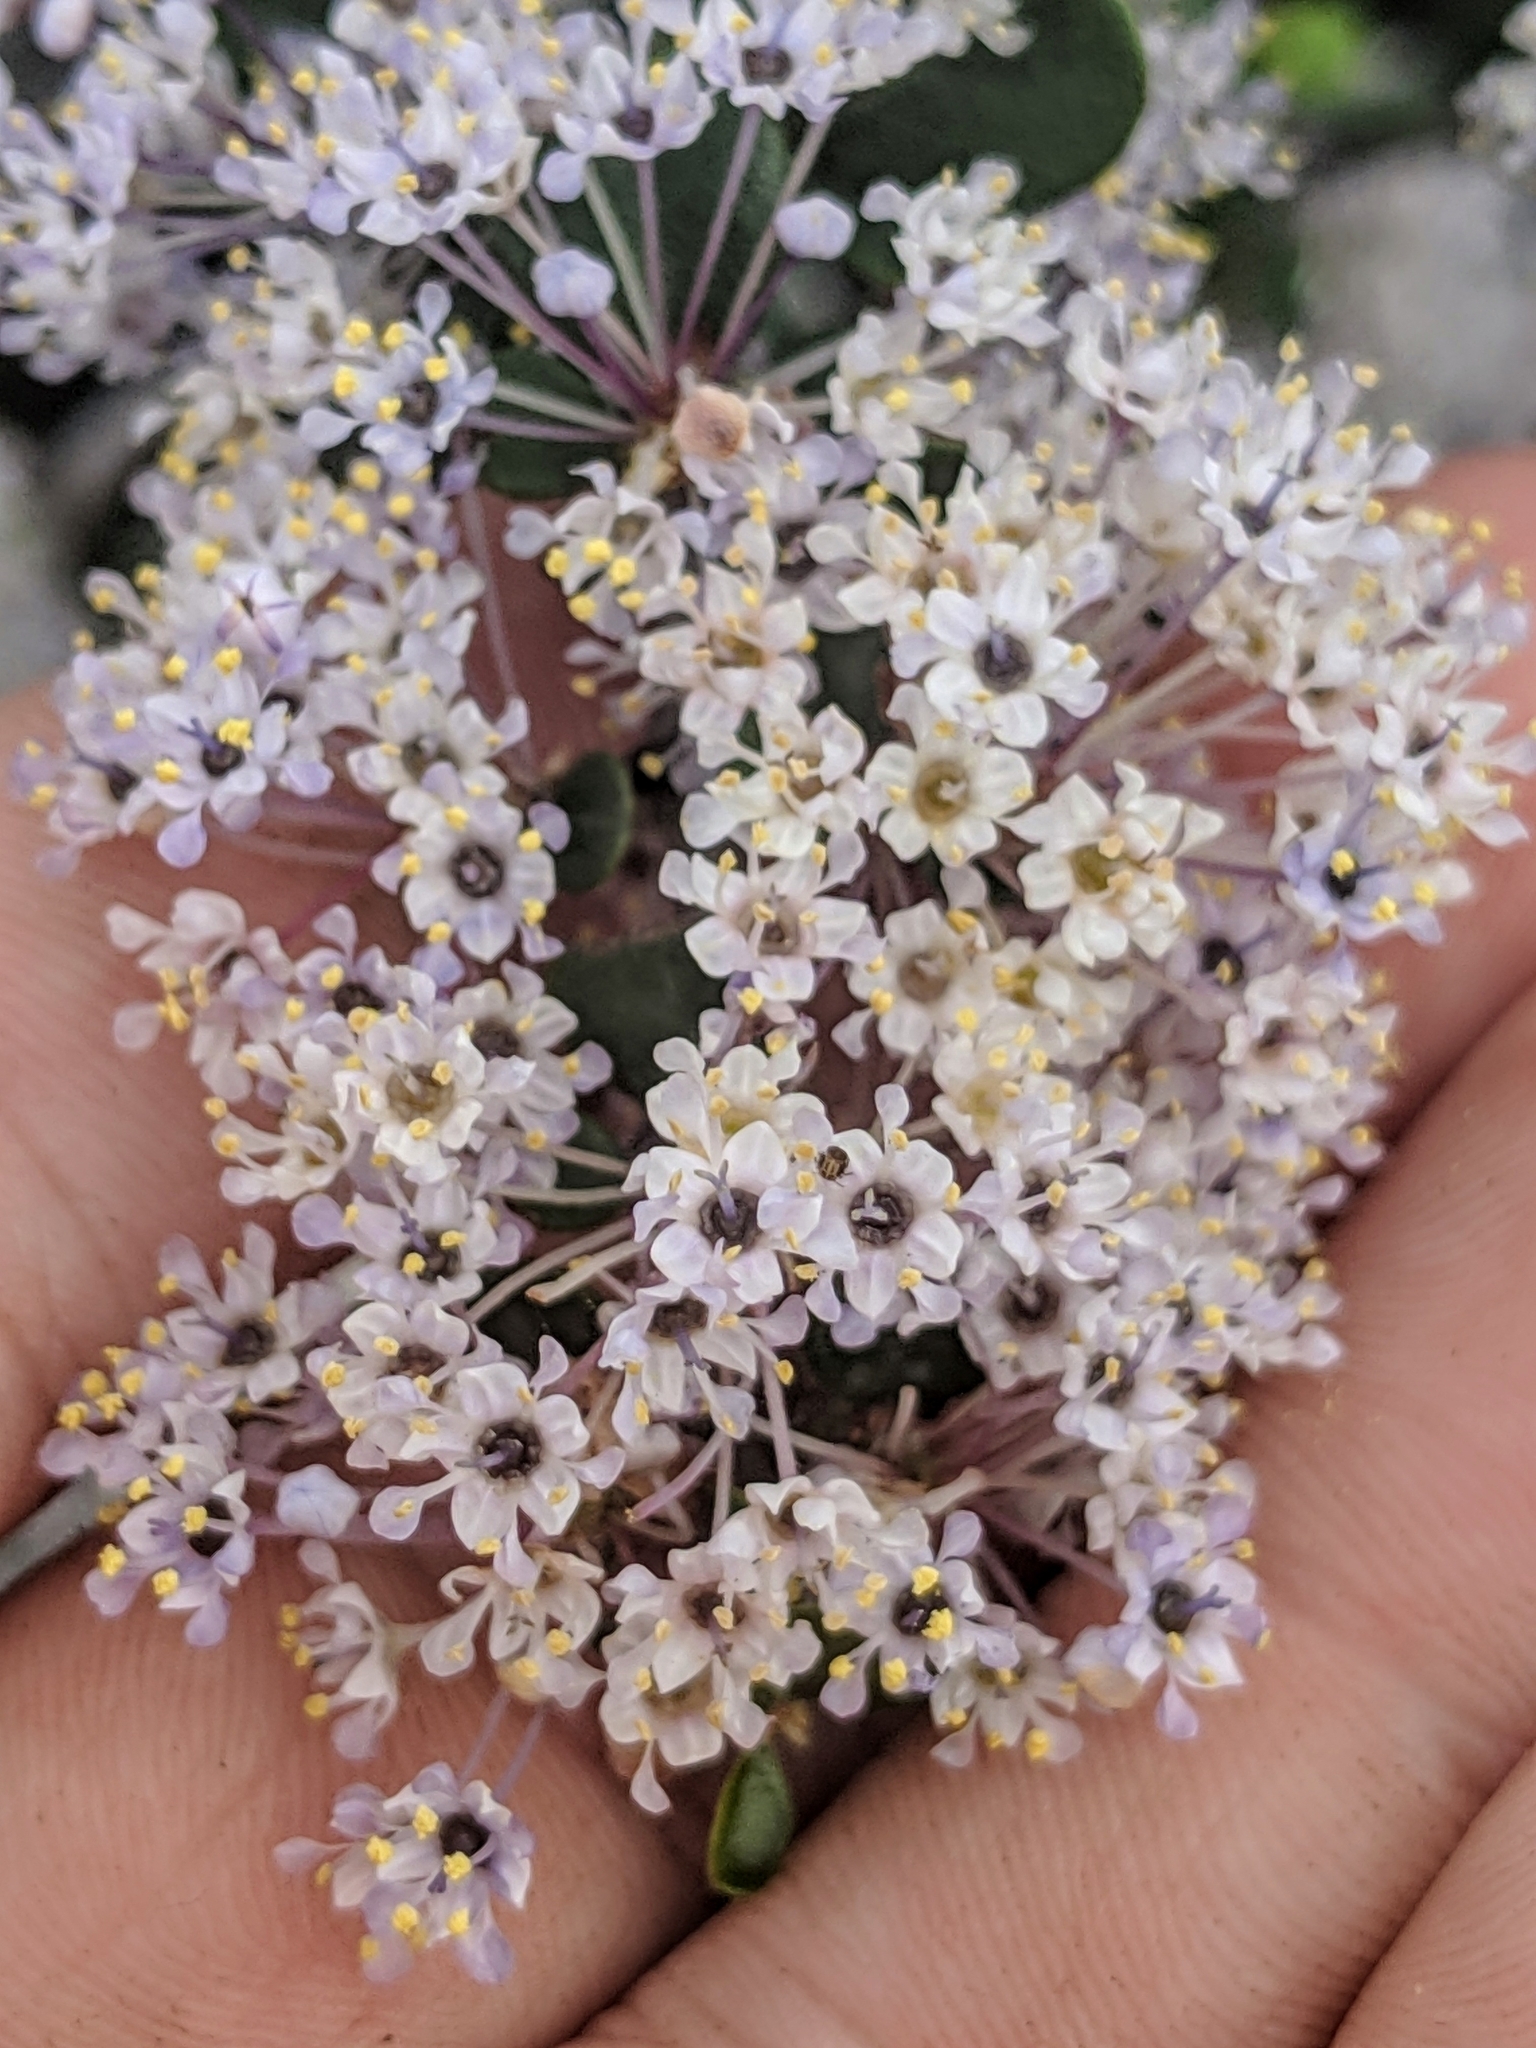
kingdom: Plantae
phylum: Tracheophyta
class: Magnoliopsida
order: Rosales
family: Rhamnaceae
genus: Ceanothus
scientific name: Ceanothus cuneatus
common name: Cuneate ceanothus
